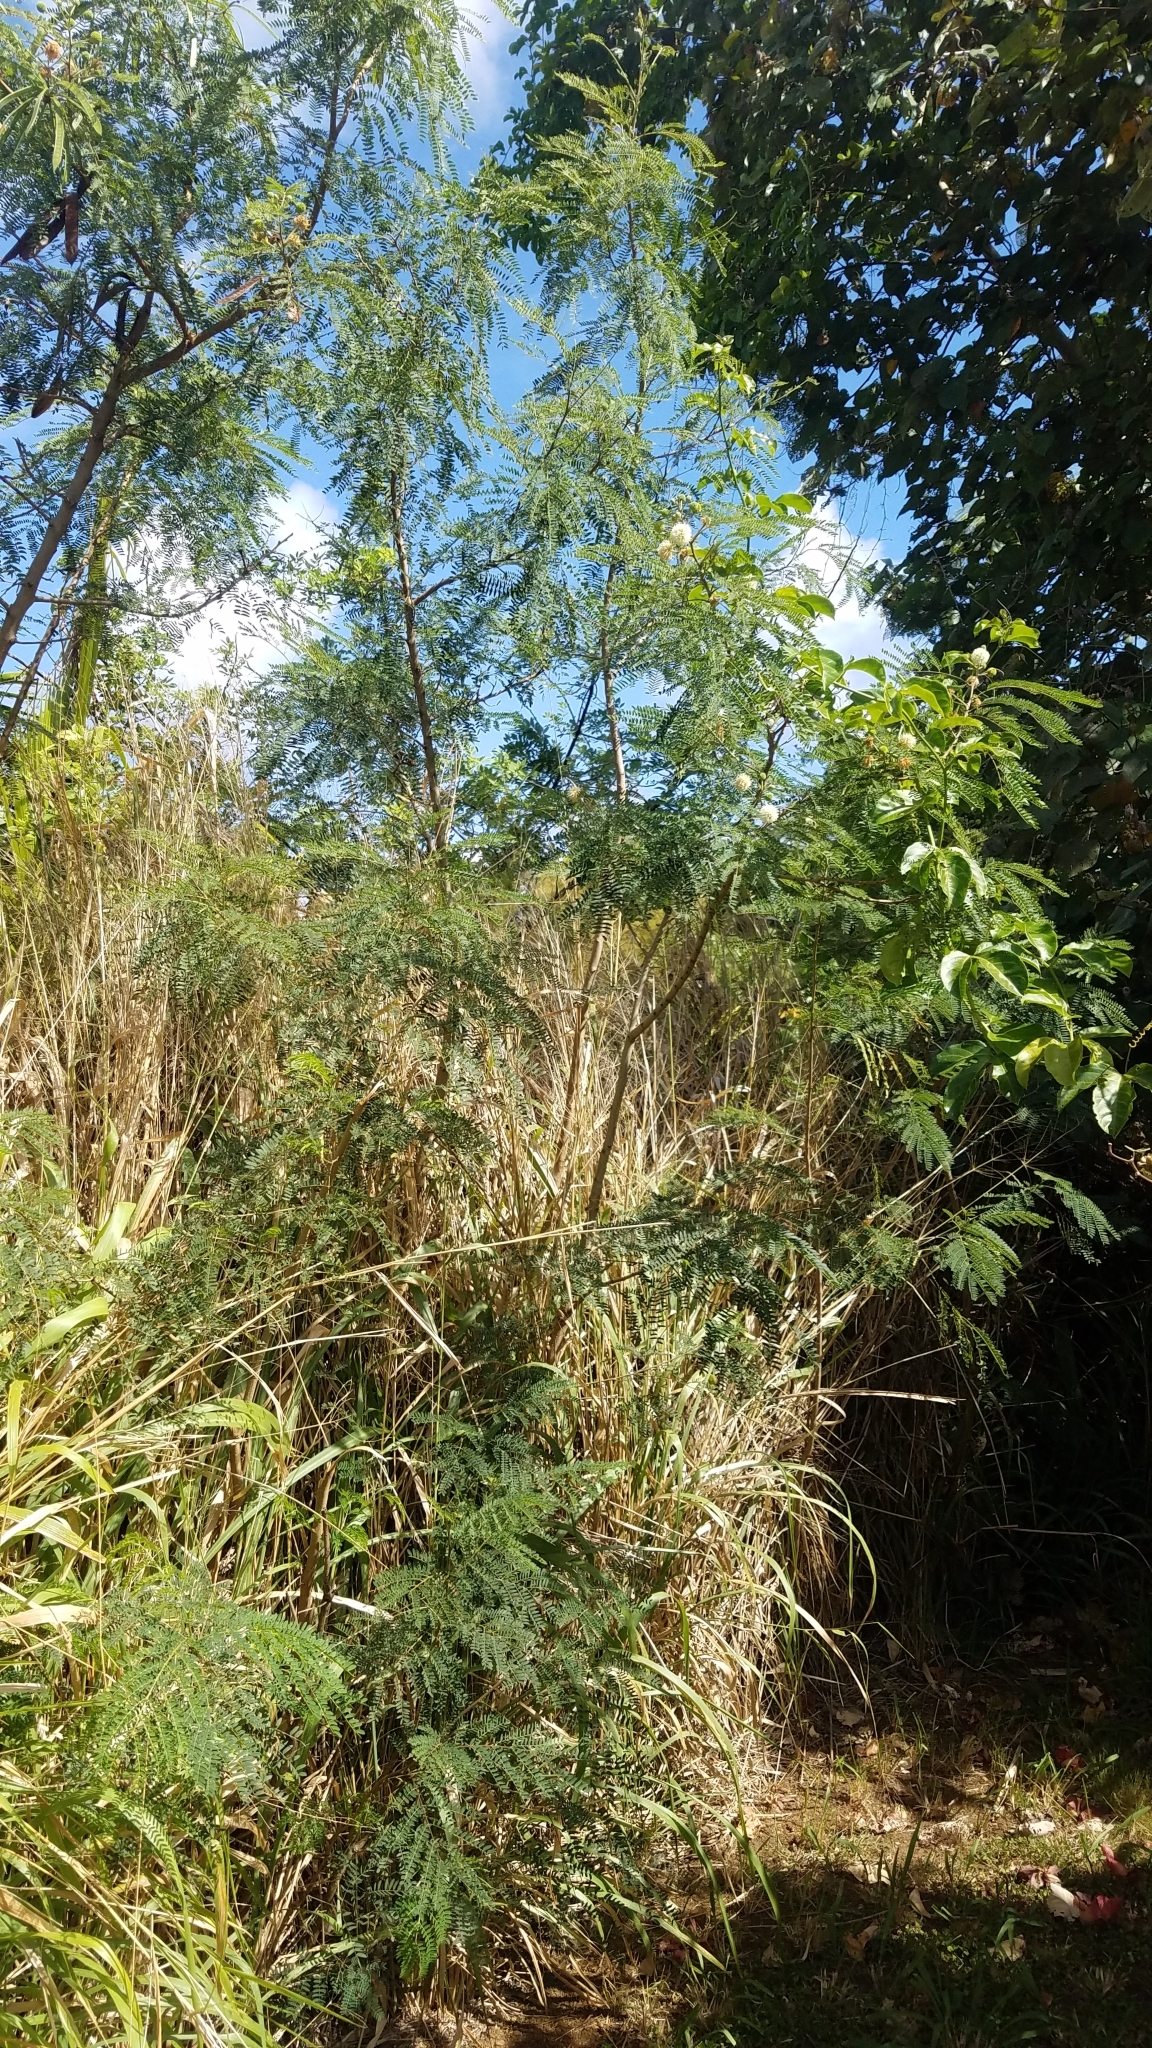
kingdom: Plantae
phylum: Tracheophyta
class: Magnoliopsida
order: Fabales
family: Fabaceae
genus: Leucaena
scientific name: Leucaena leucocephala
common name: White leadtree
